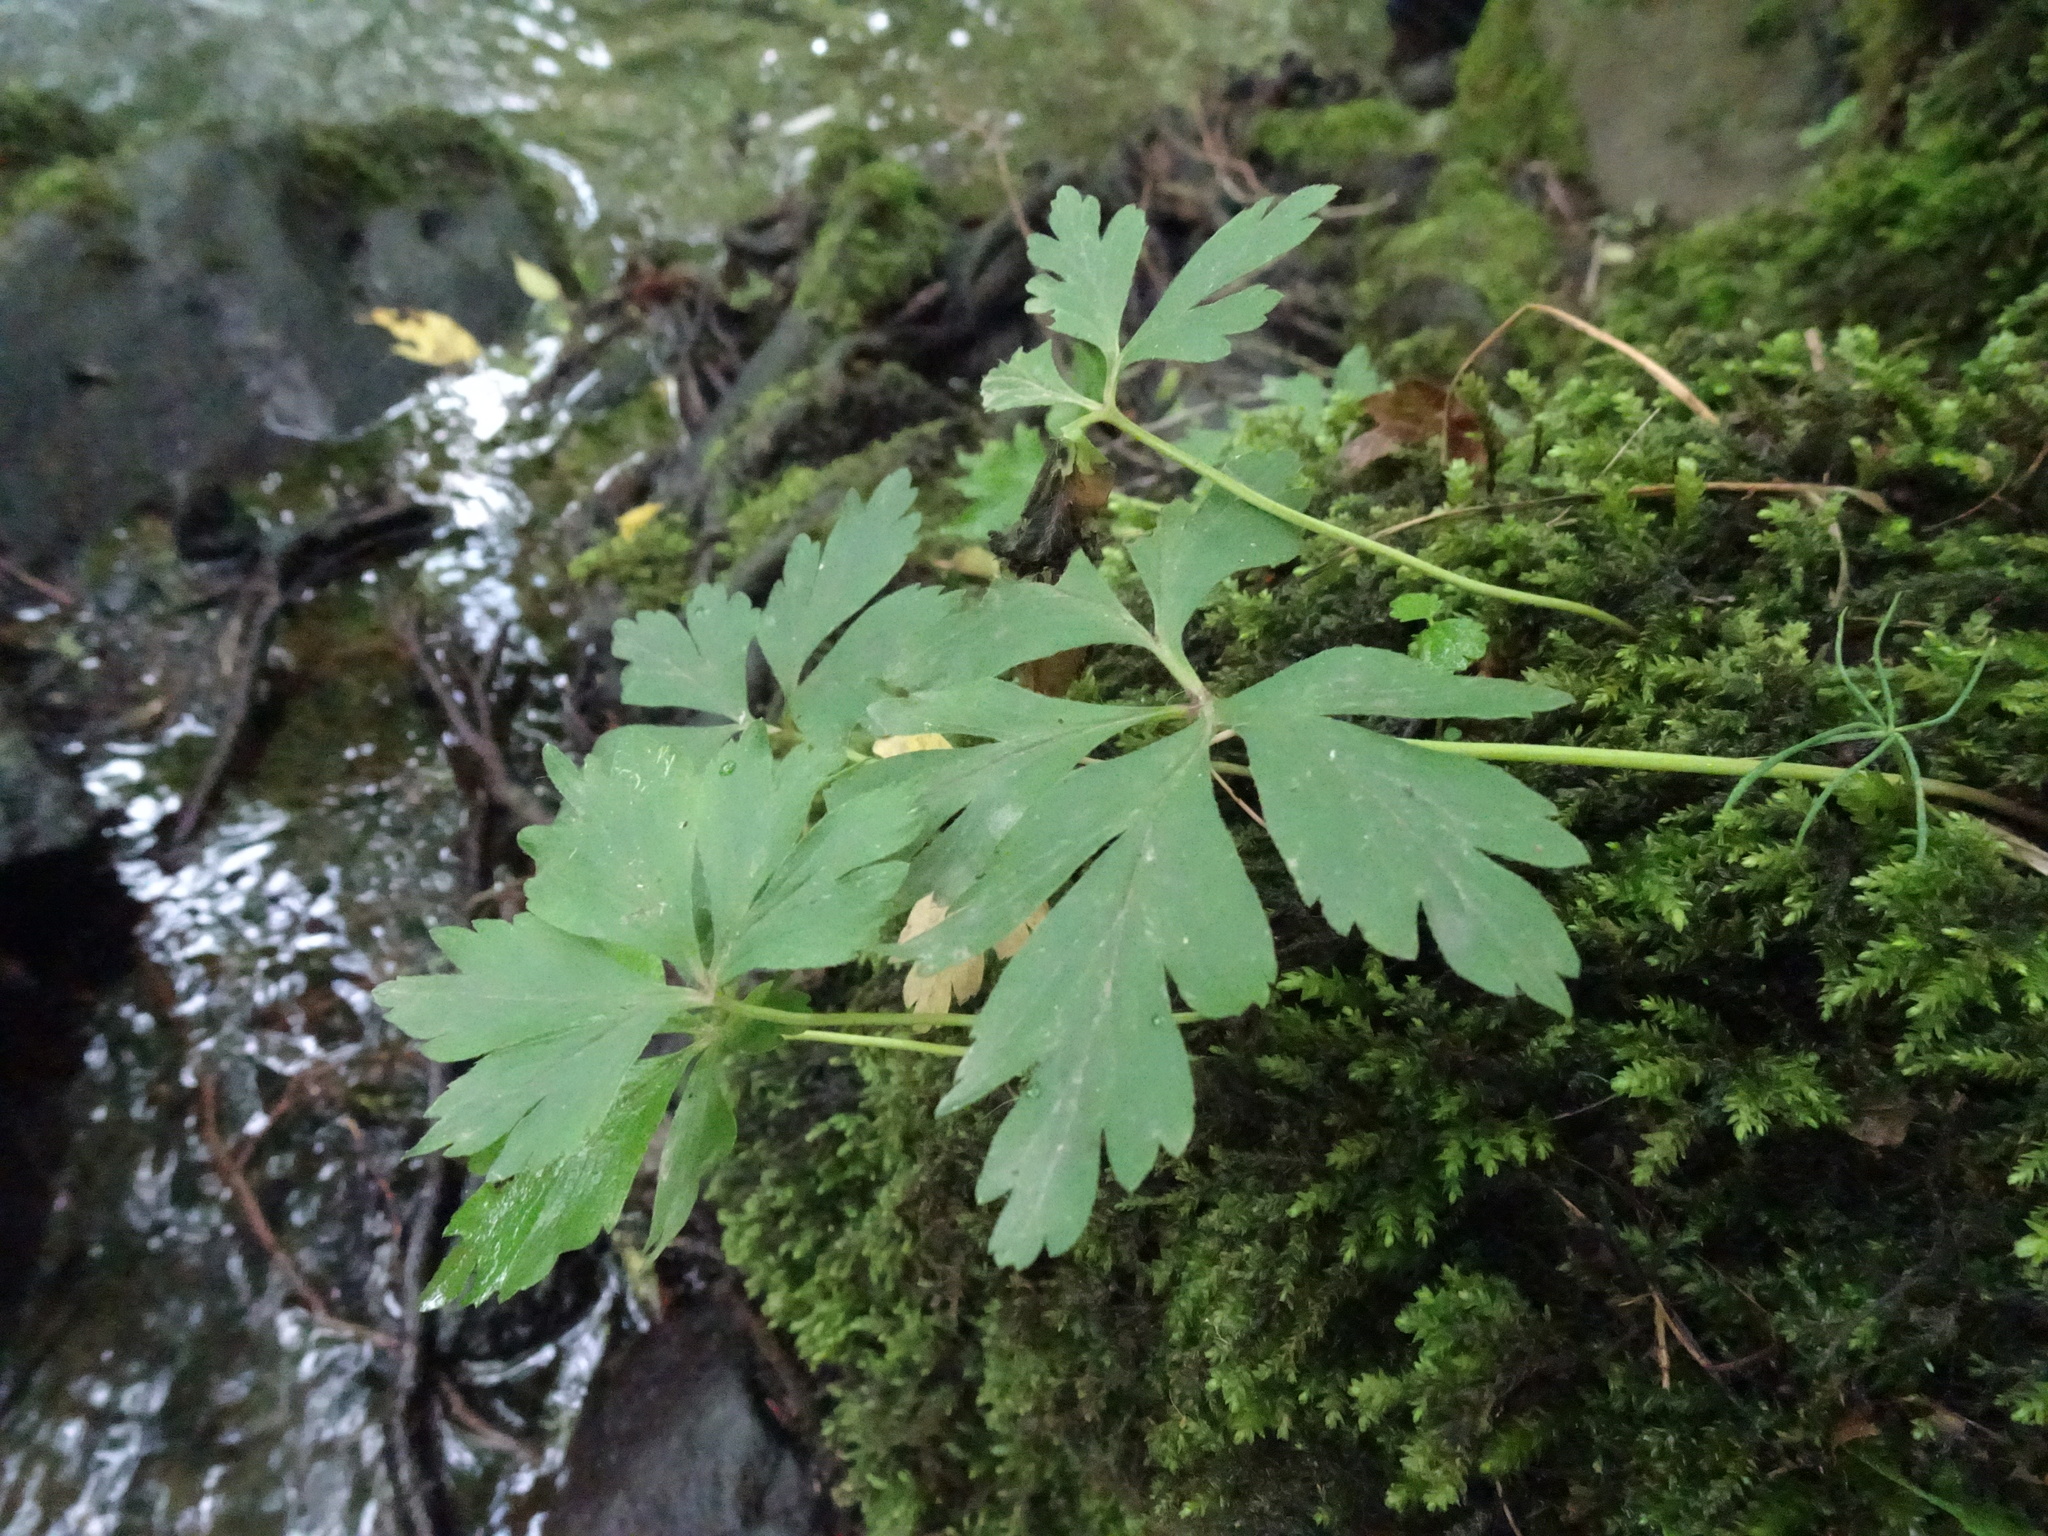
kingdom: Plantae
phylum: Tracheophyta
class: Magnoliopsida
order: Ranunculales
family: Ranunculaceae
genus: Anemone
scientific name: Anemone nemorosa
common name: Wood anemone
